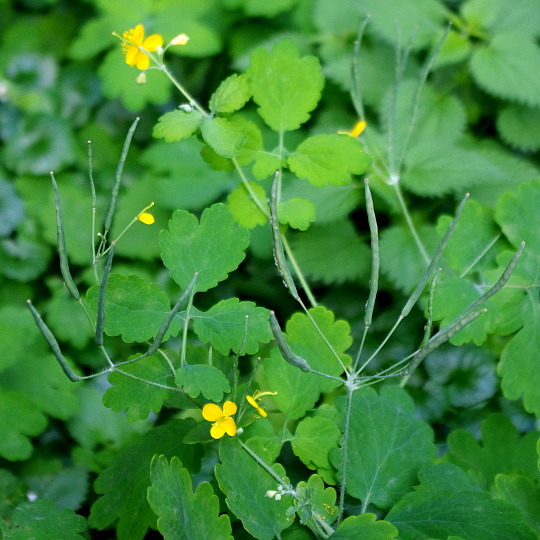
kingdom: Plantae
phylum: Tracheophyta
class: Magnoliopsida
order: Ranunculales
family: Papaveraceae
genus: Chelidonium
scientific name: Chelidonium majus
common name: Greater celandine
